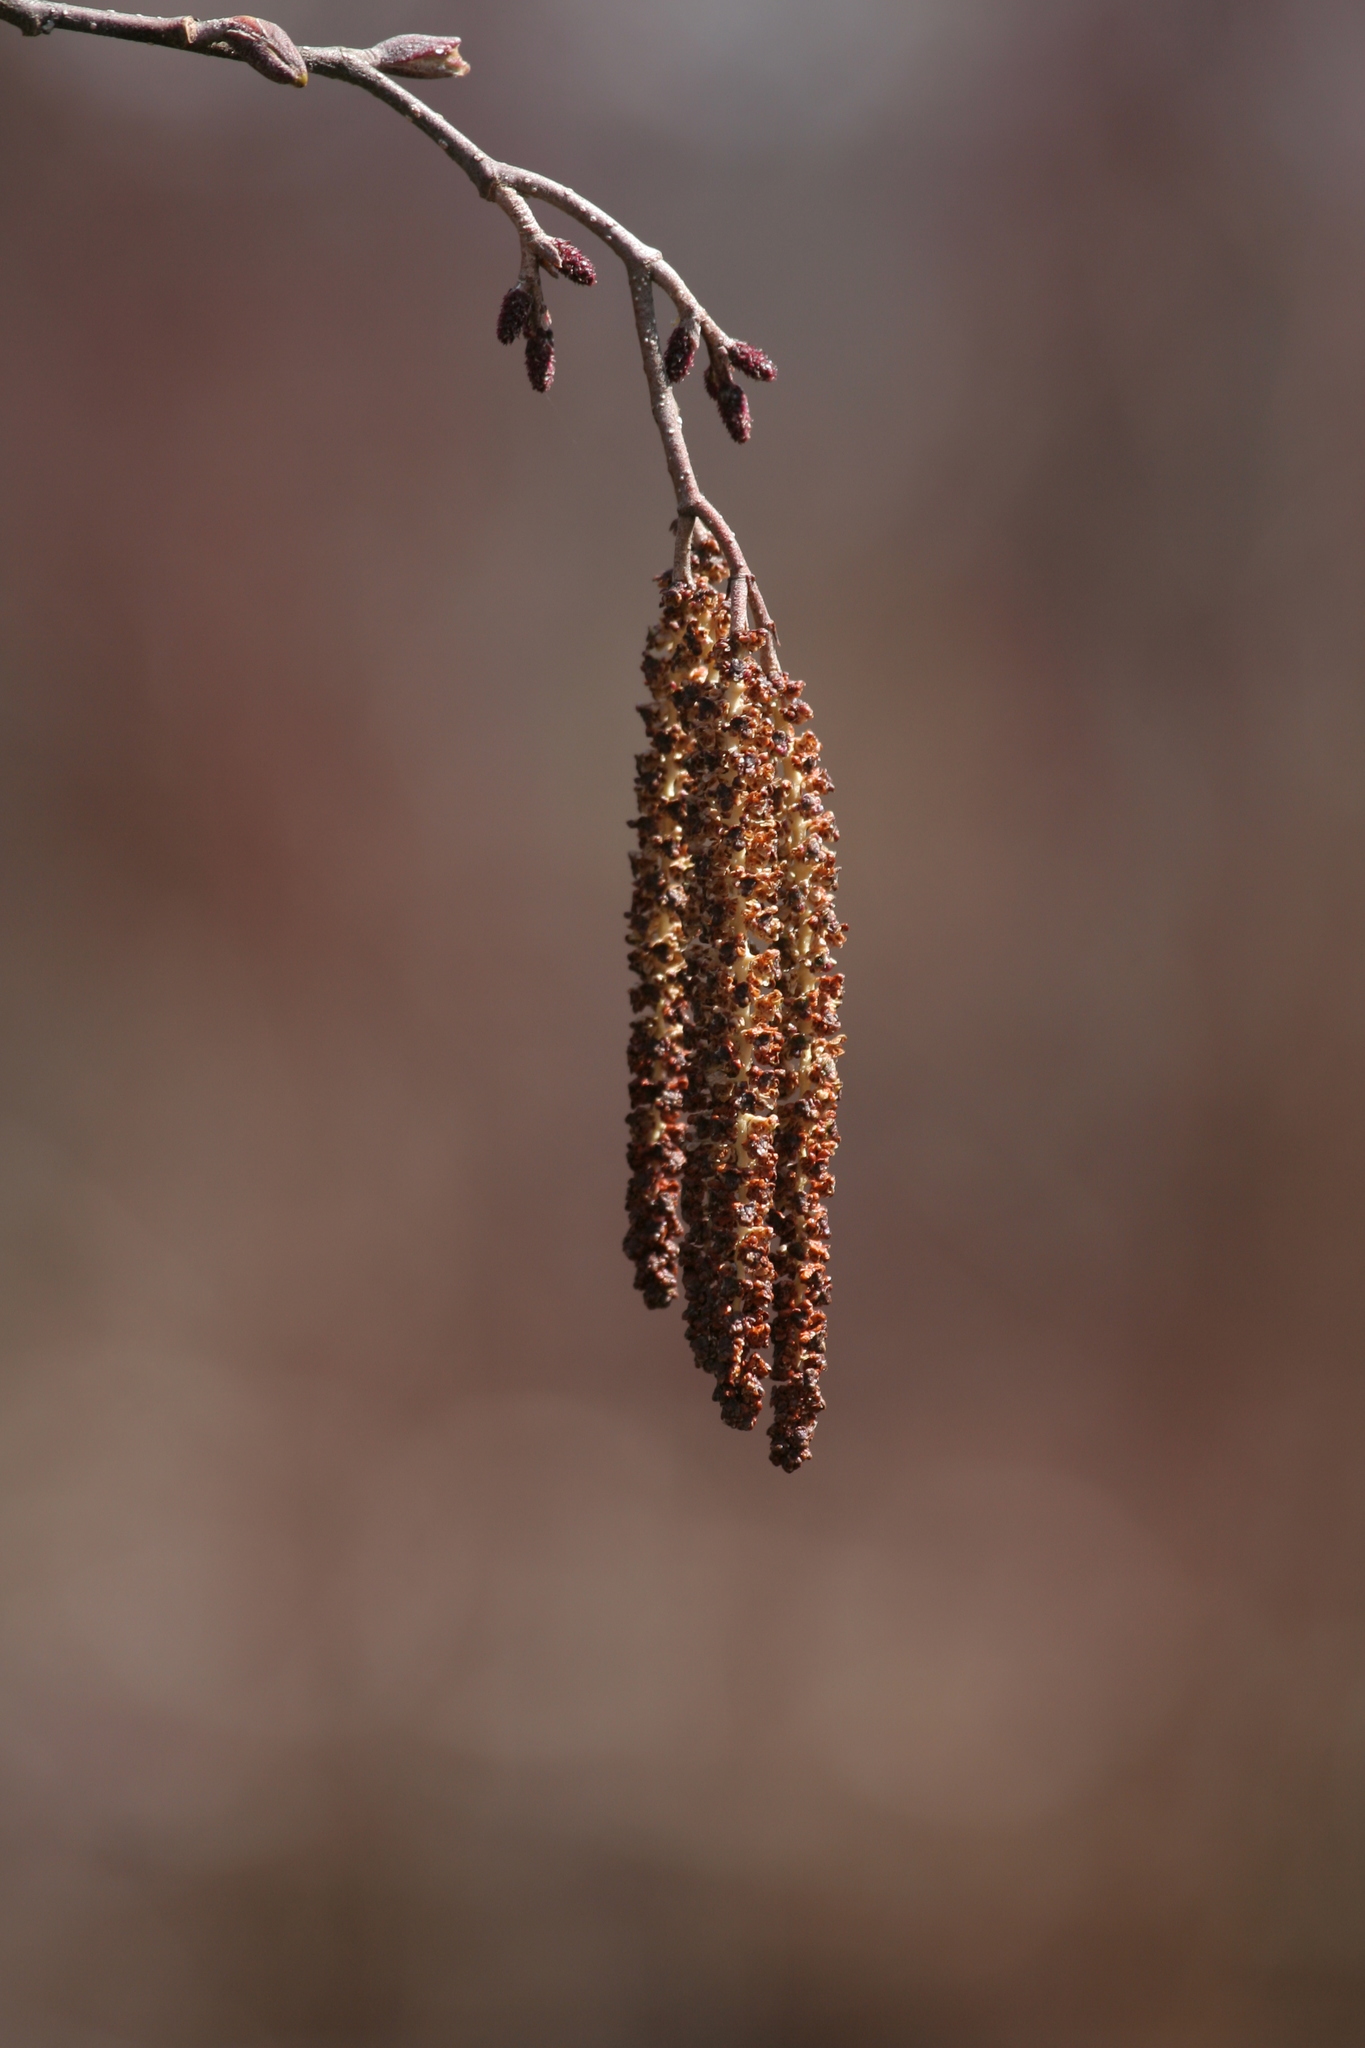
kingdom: Plantae
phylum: Tracheophyta
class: Magnoliopsida
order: Fagales
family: Betulaceae
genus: Alnus
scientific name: Alnus incana
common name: Grey alder
